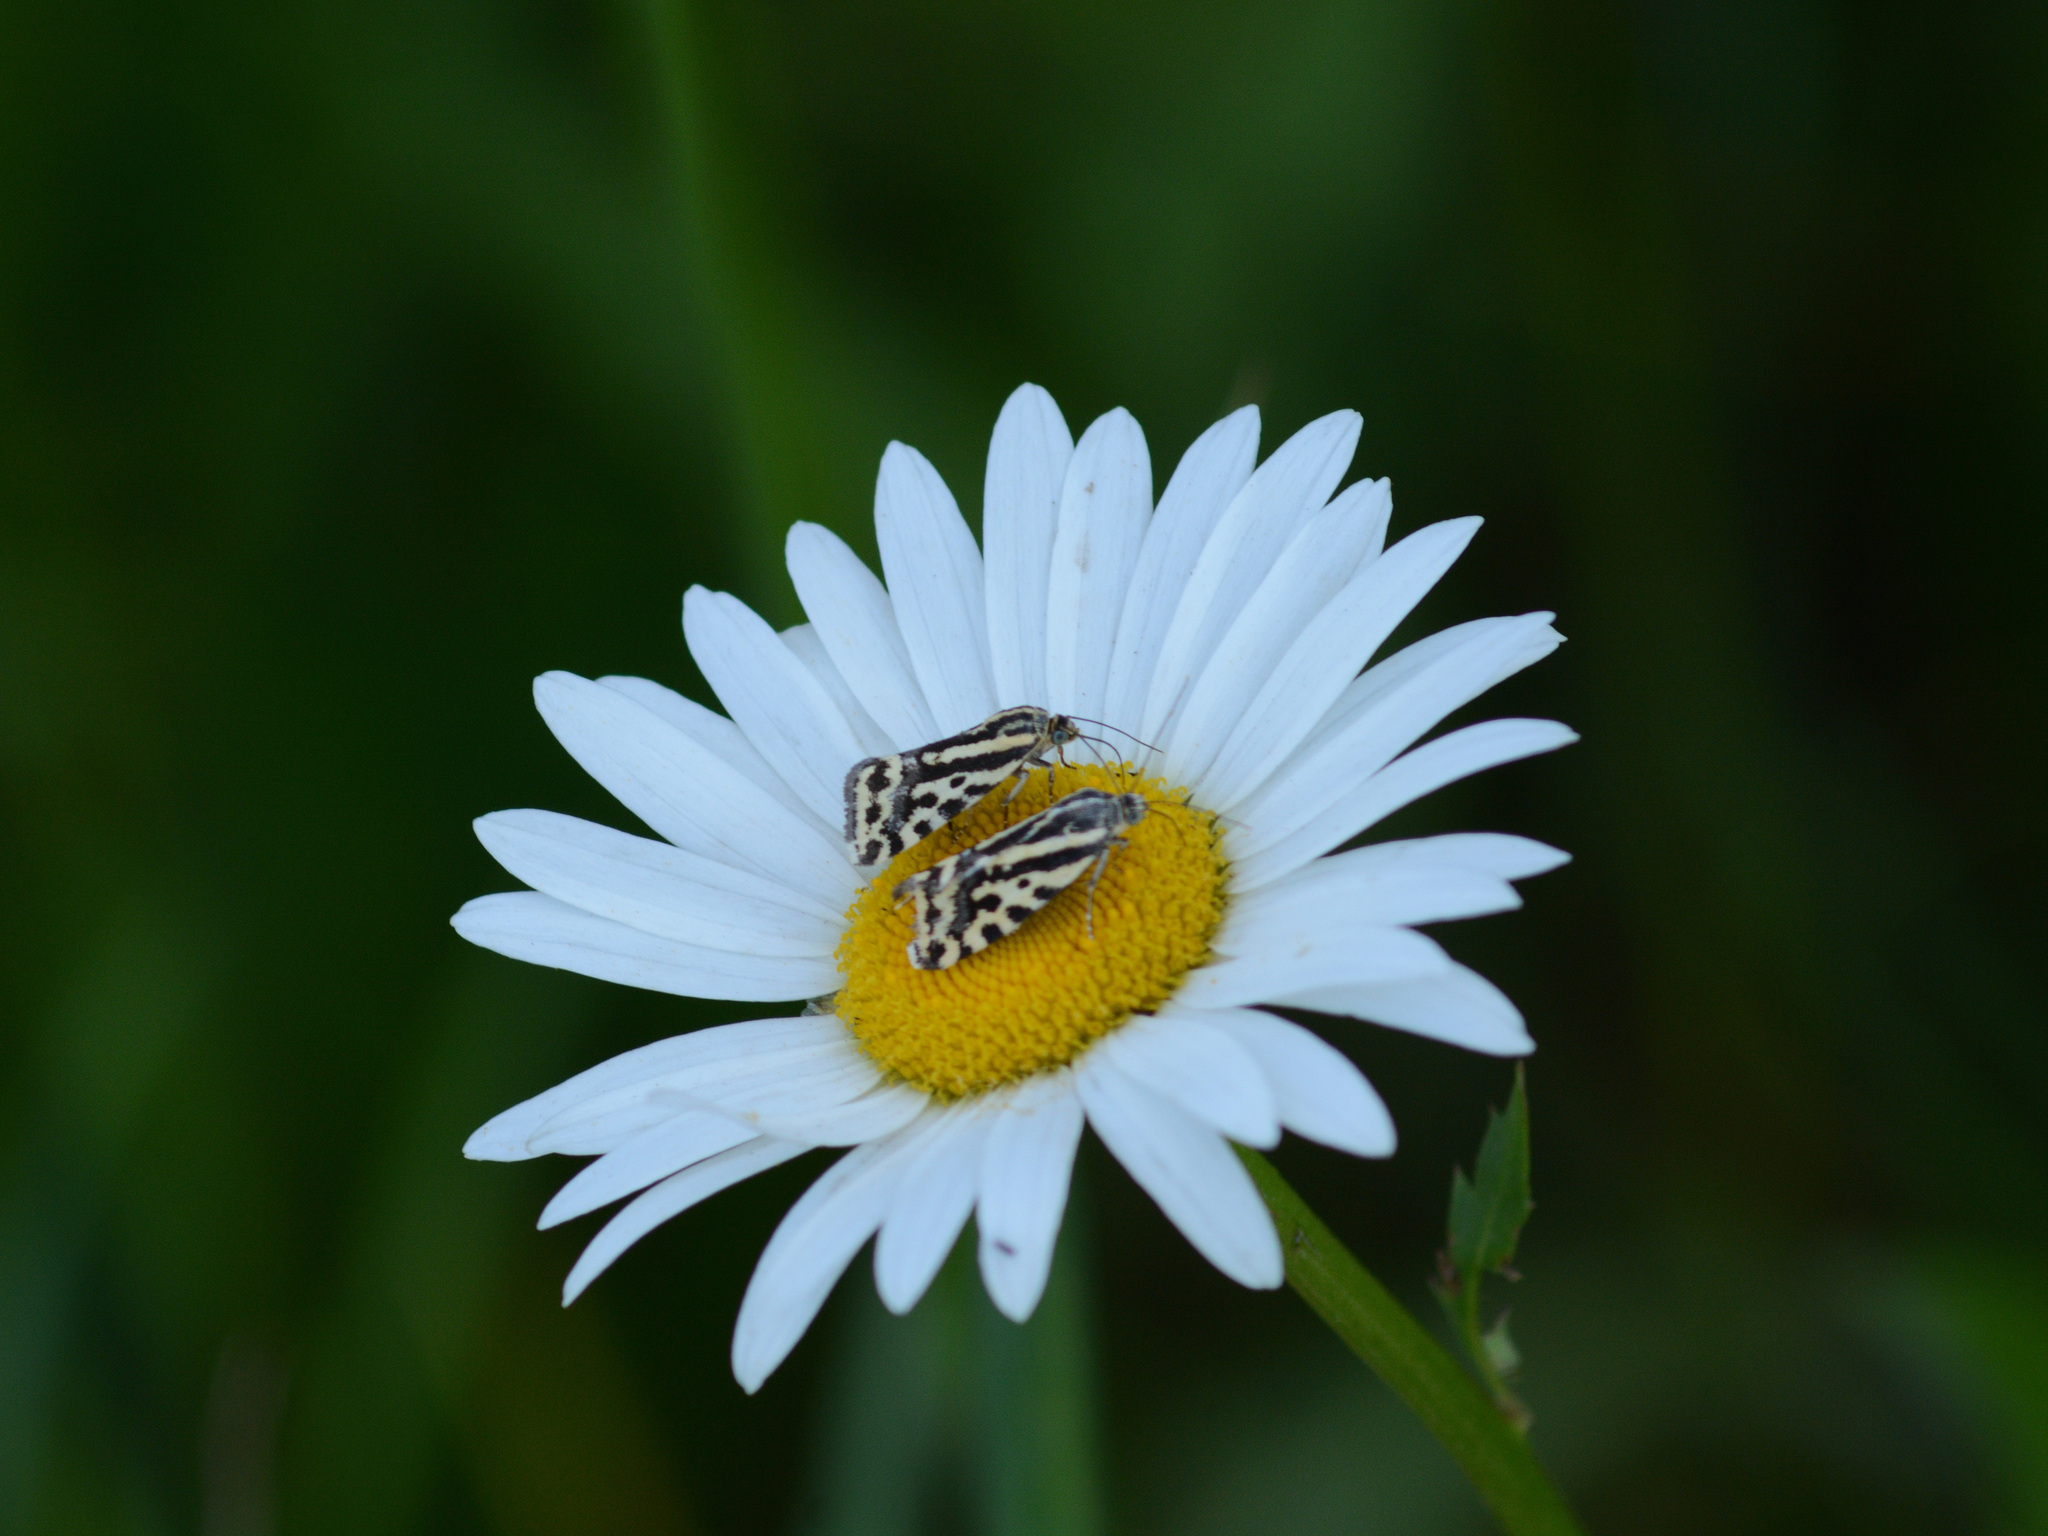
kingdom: Animalia
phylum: Arthropoda
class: Insecta
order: Lepidoptera
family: Noctuidae
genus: Acontia
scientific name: Acontia trabealis
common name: Spotted sulphur
